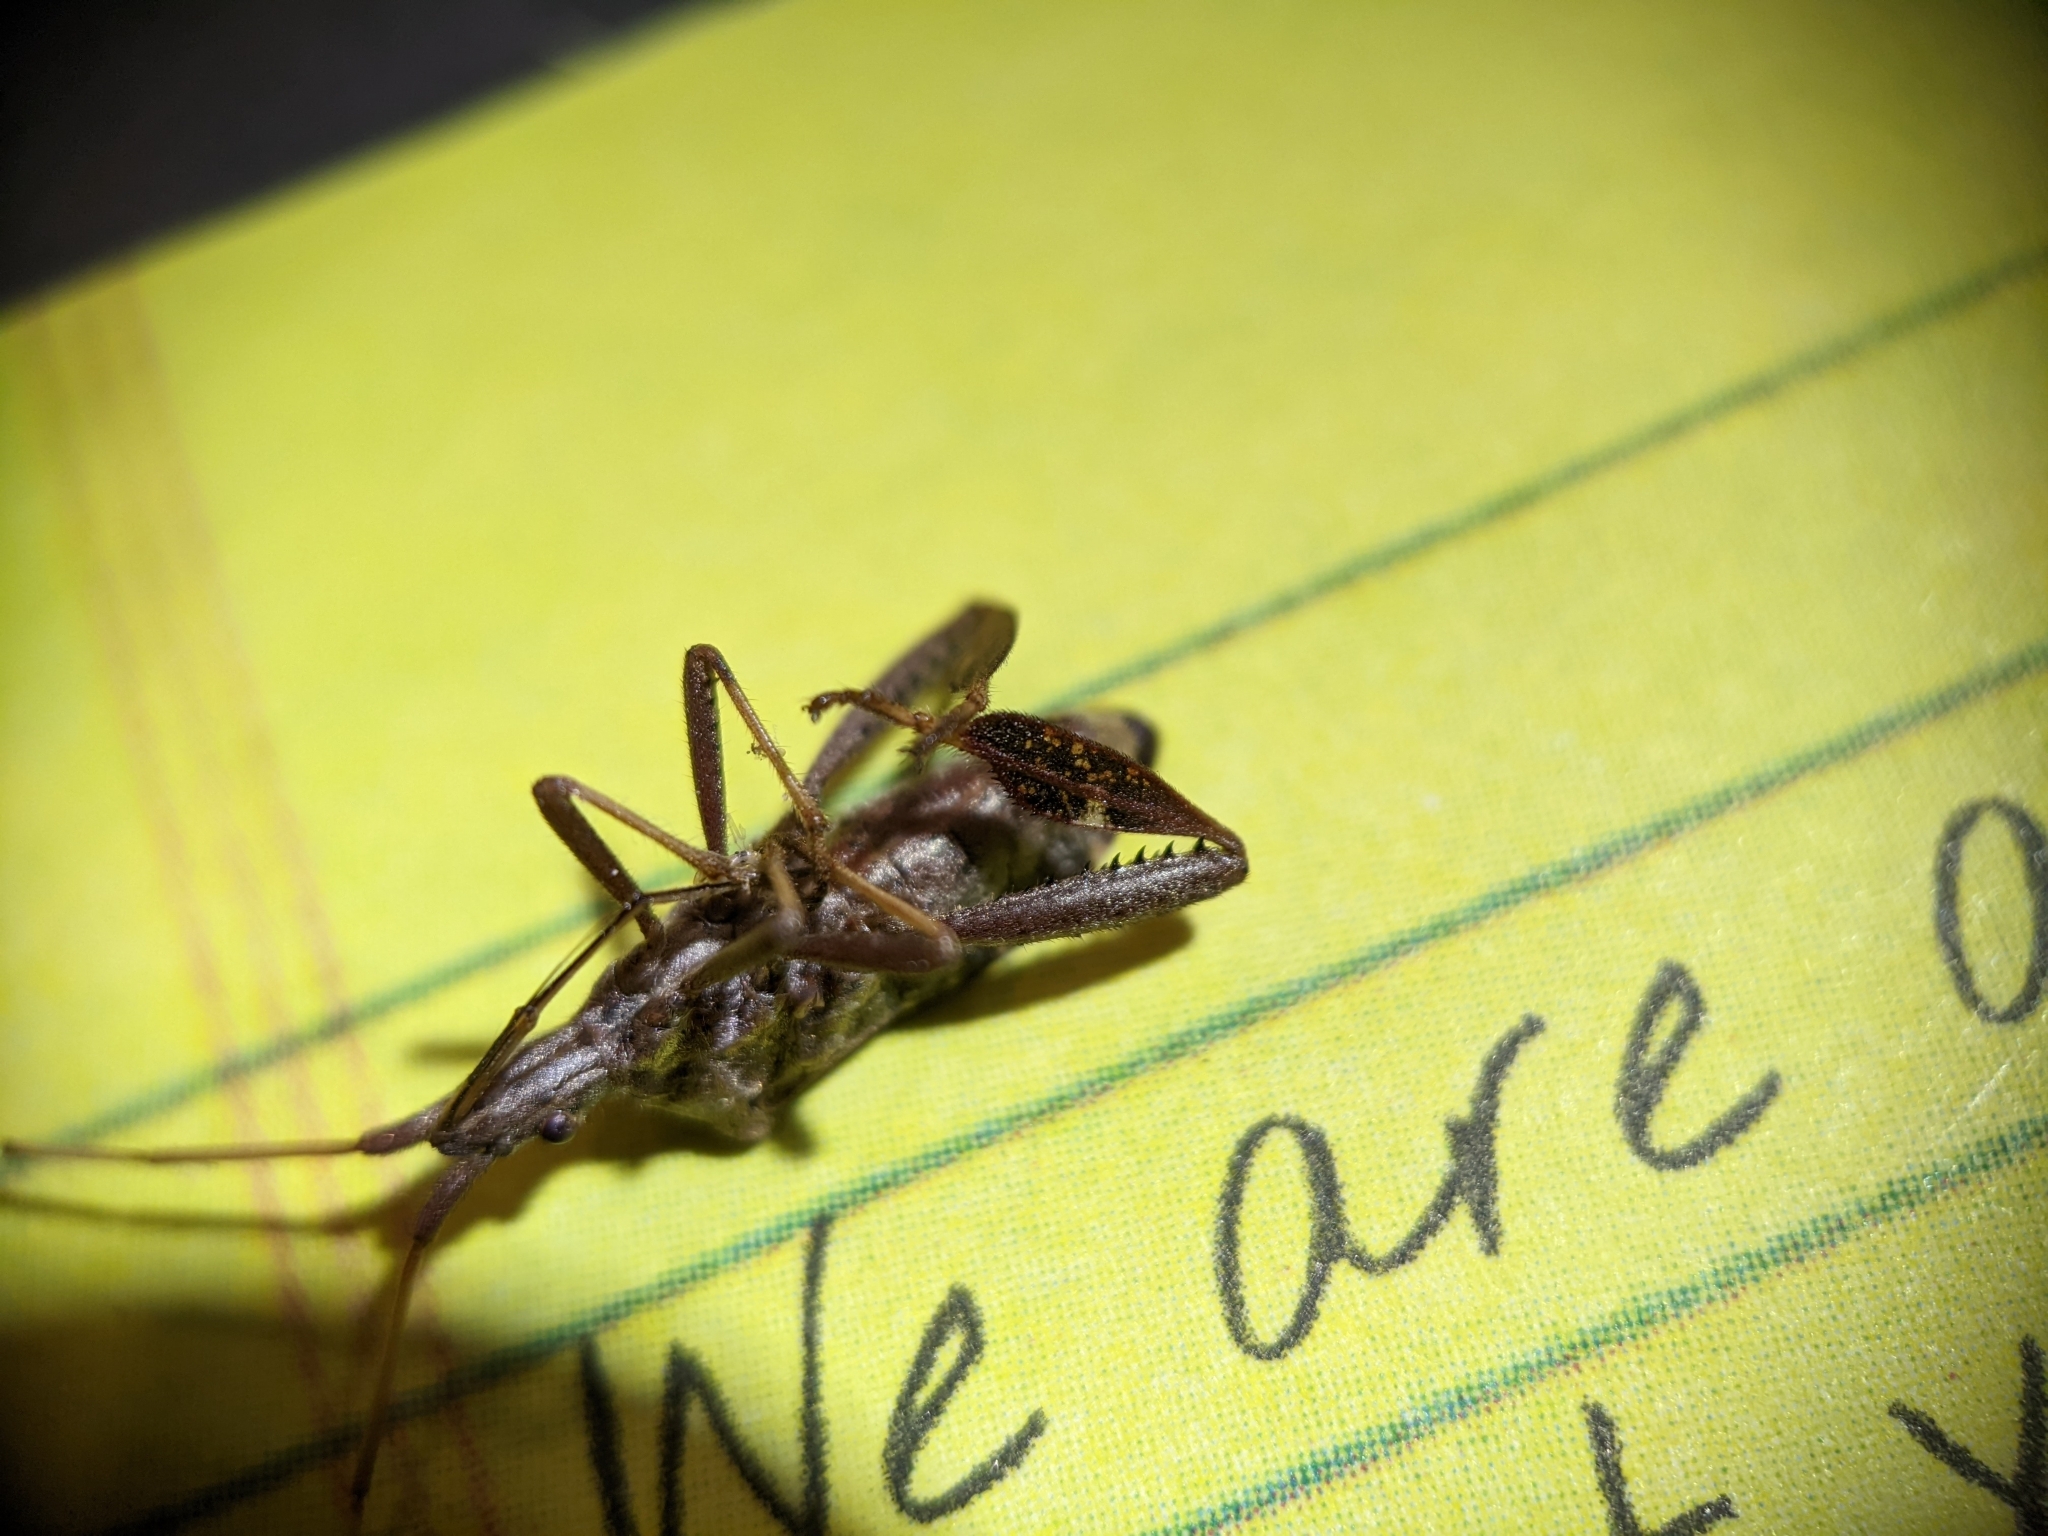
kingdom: Animalia
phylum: Arthropoda
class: Insecta
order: Hemiptera
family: Coreidae
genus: Leptoglossus
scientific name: Leptoglossus corculus
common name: Southern pine seed bug
